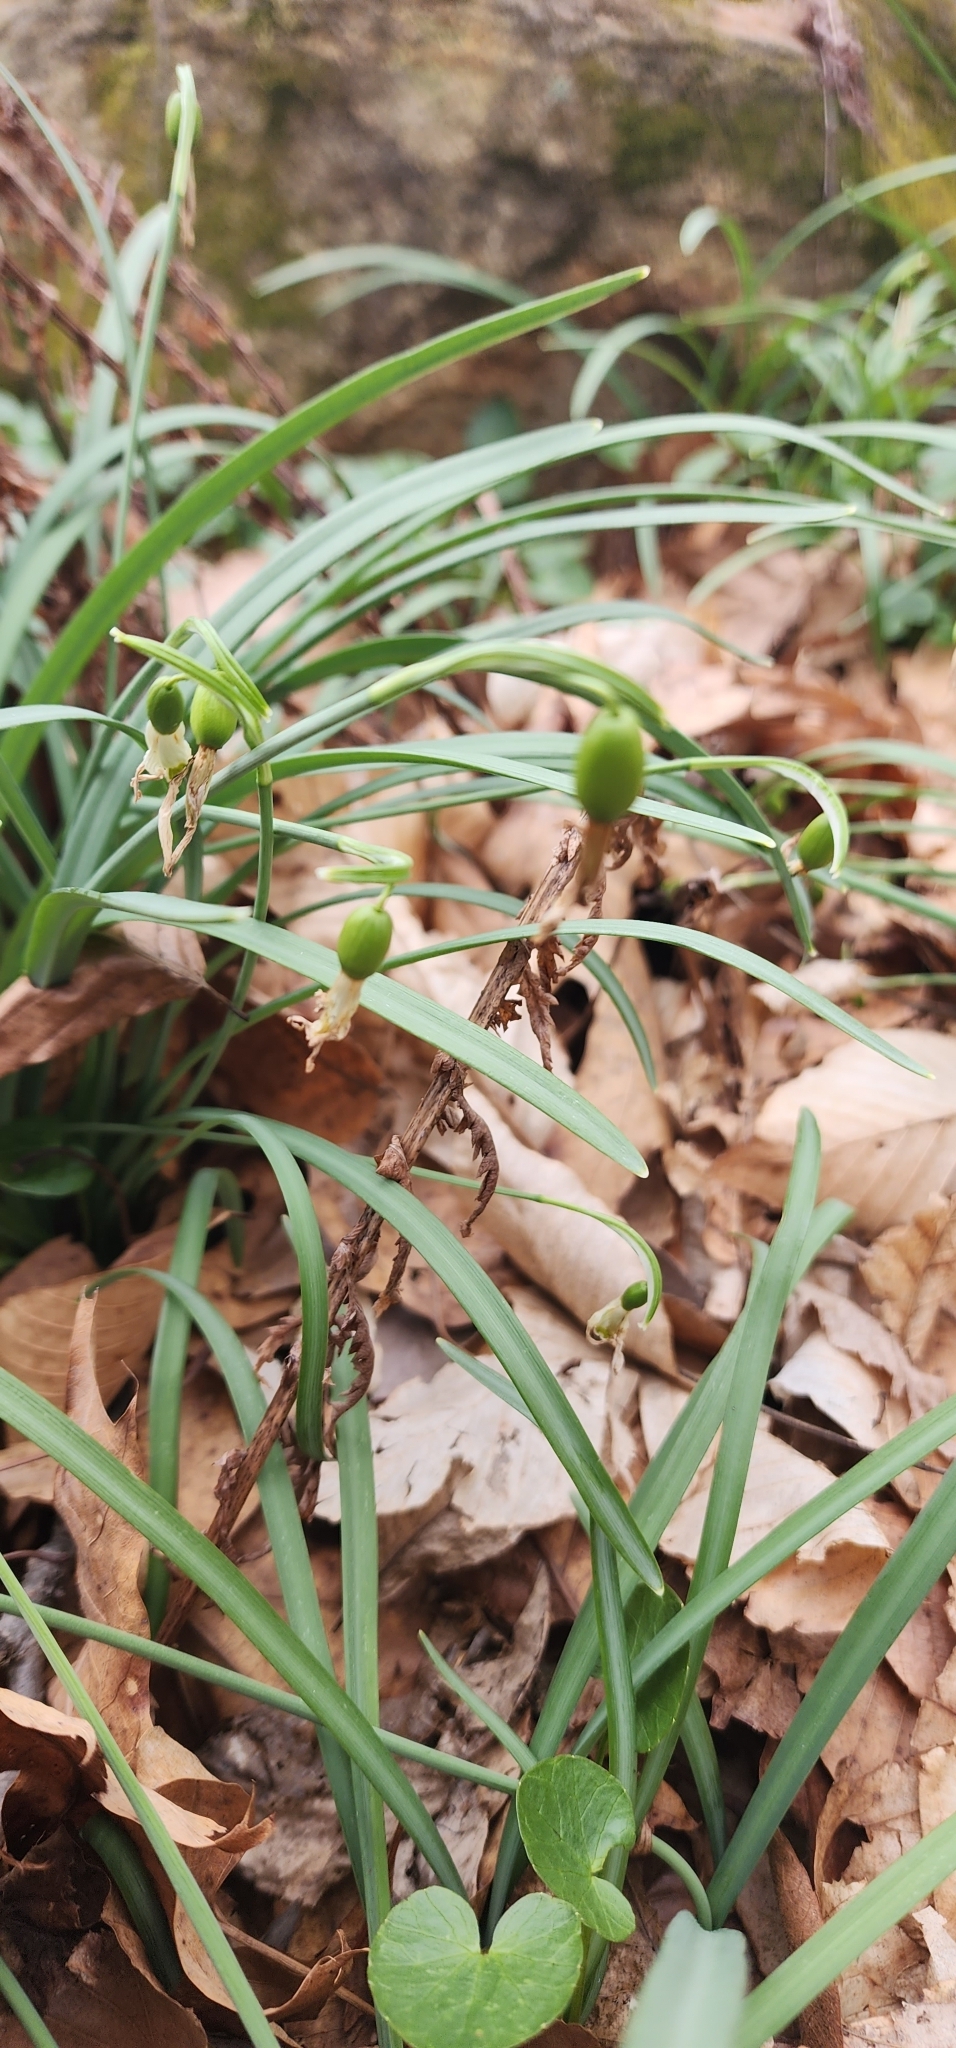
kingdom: Plantae
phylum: Tracheophyta
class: Liliopsida
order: Asparagales
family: Amaryllidaceae
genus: Galanthus
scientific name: Galanthus nivalis
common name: Snowdrop
